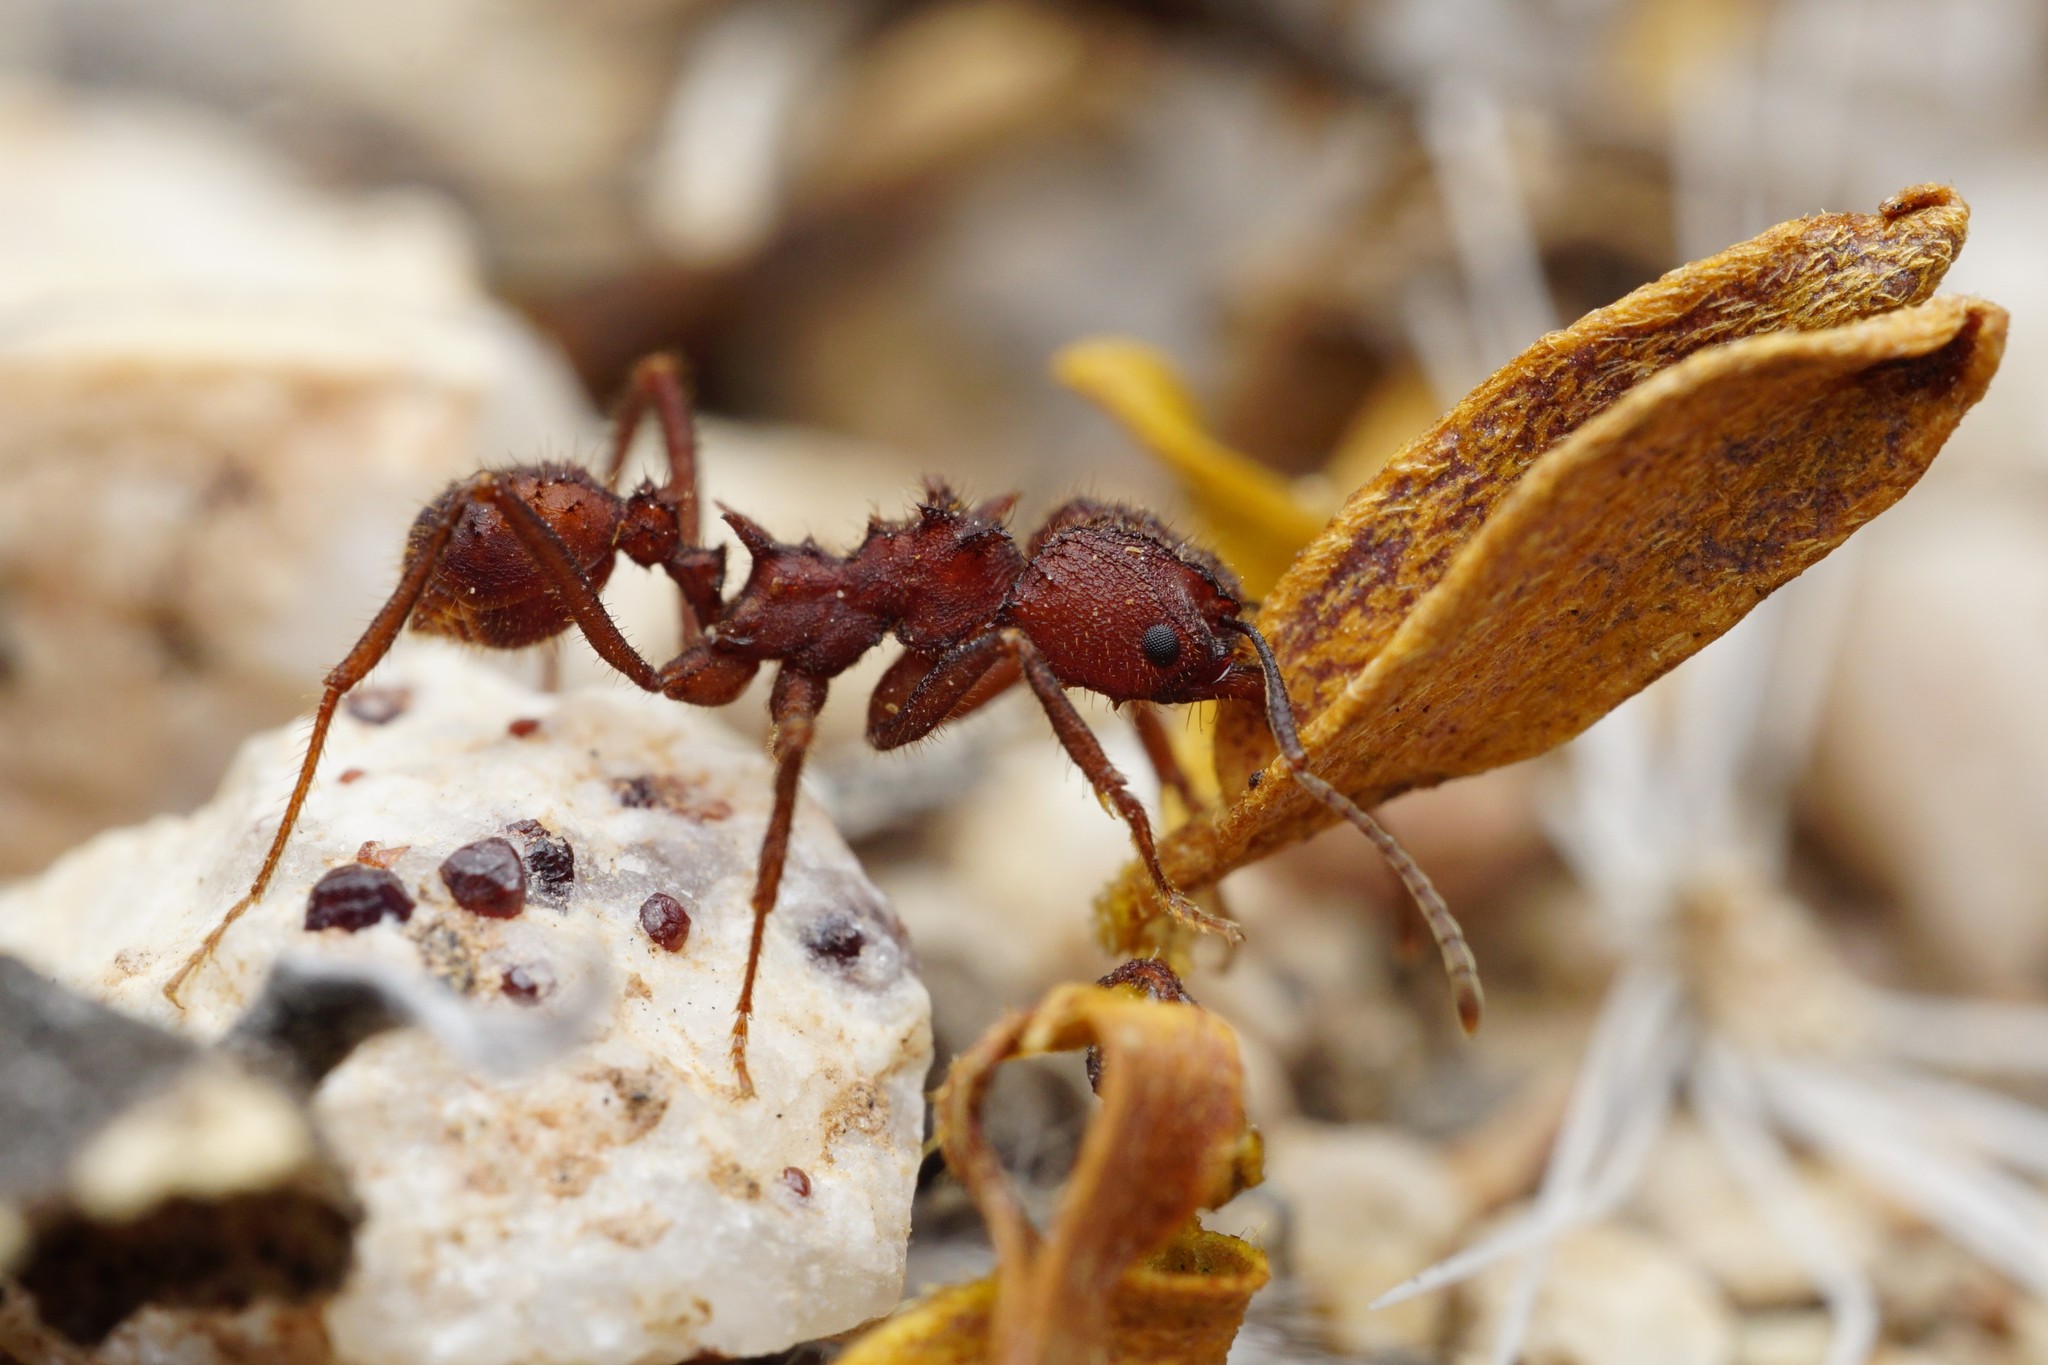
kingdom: Animalia
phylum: Arthropoda
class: Insecta
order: Hymenoptera
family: Formicidae
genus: Acromyrmex
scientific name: Acromyrmex versicolor
